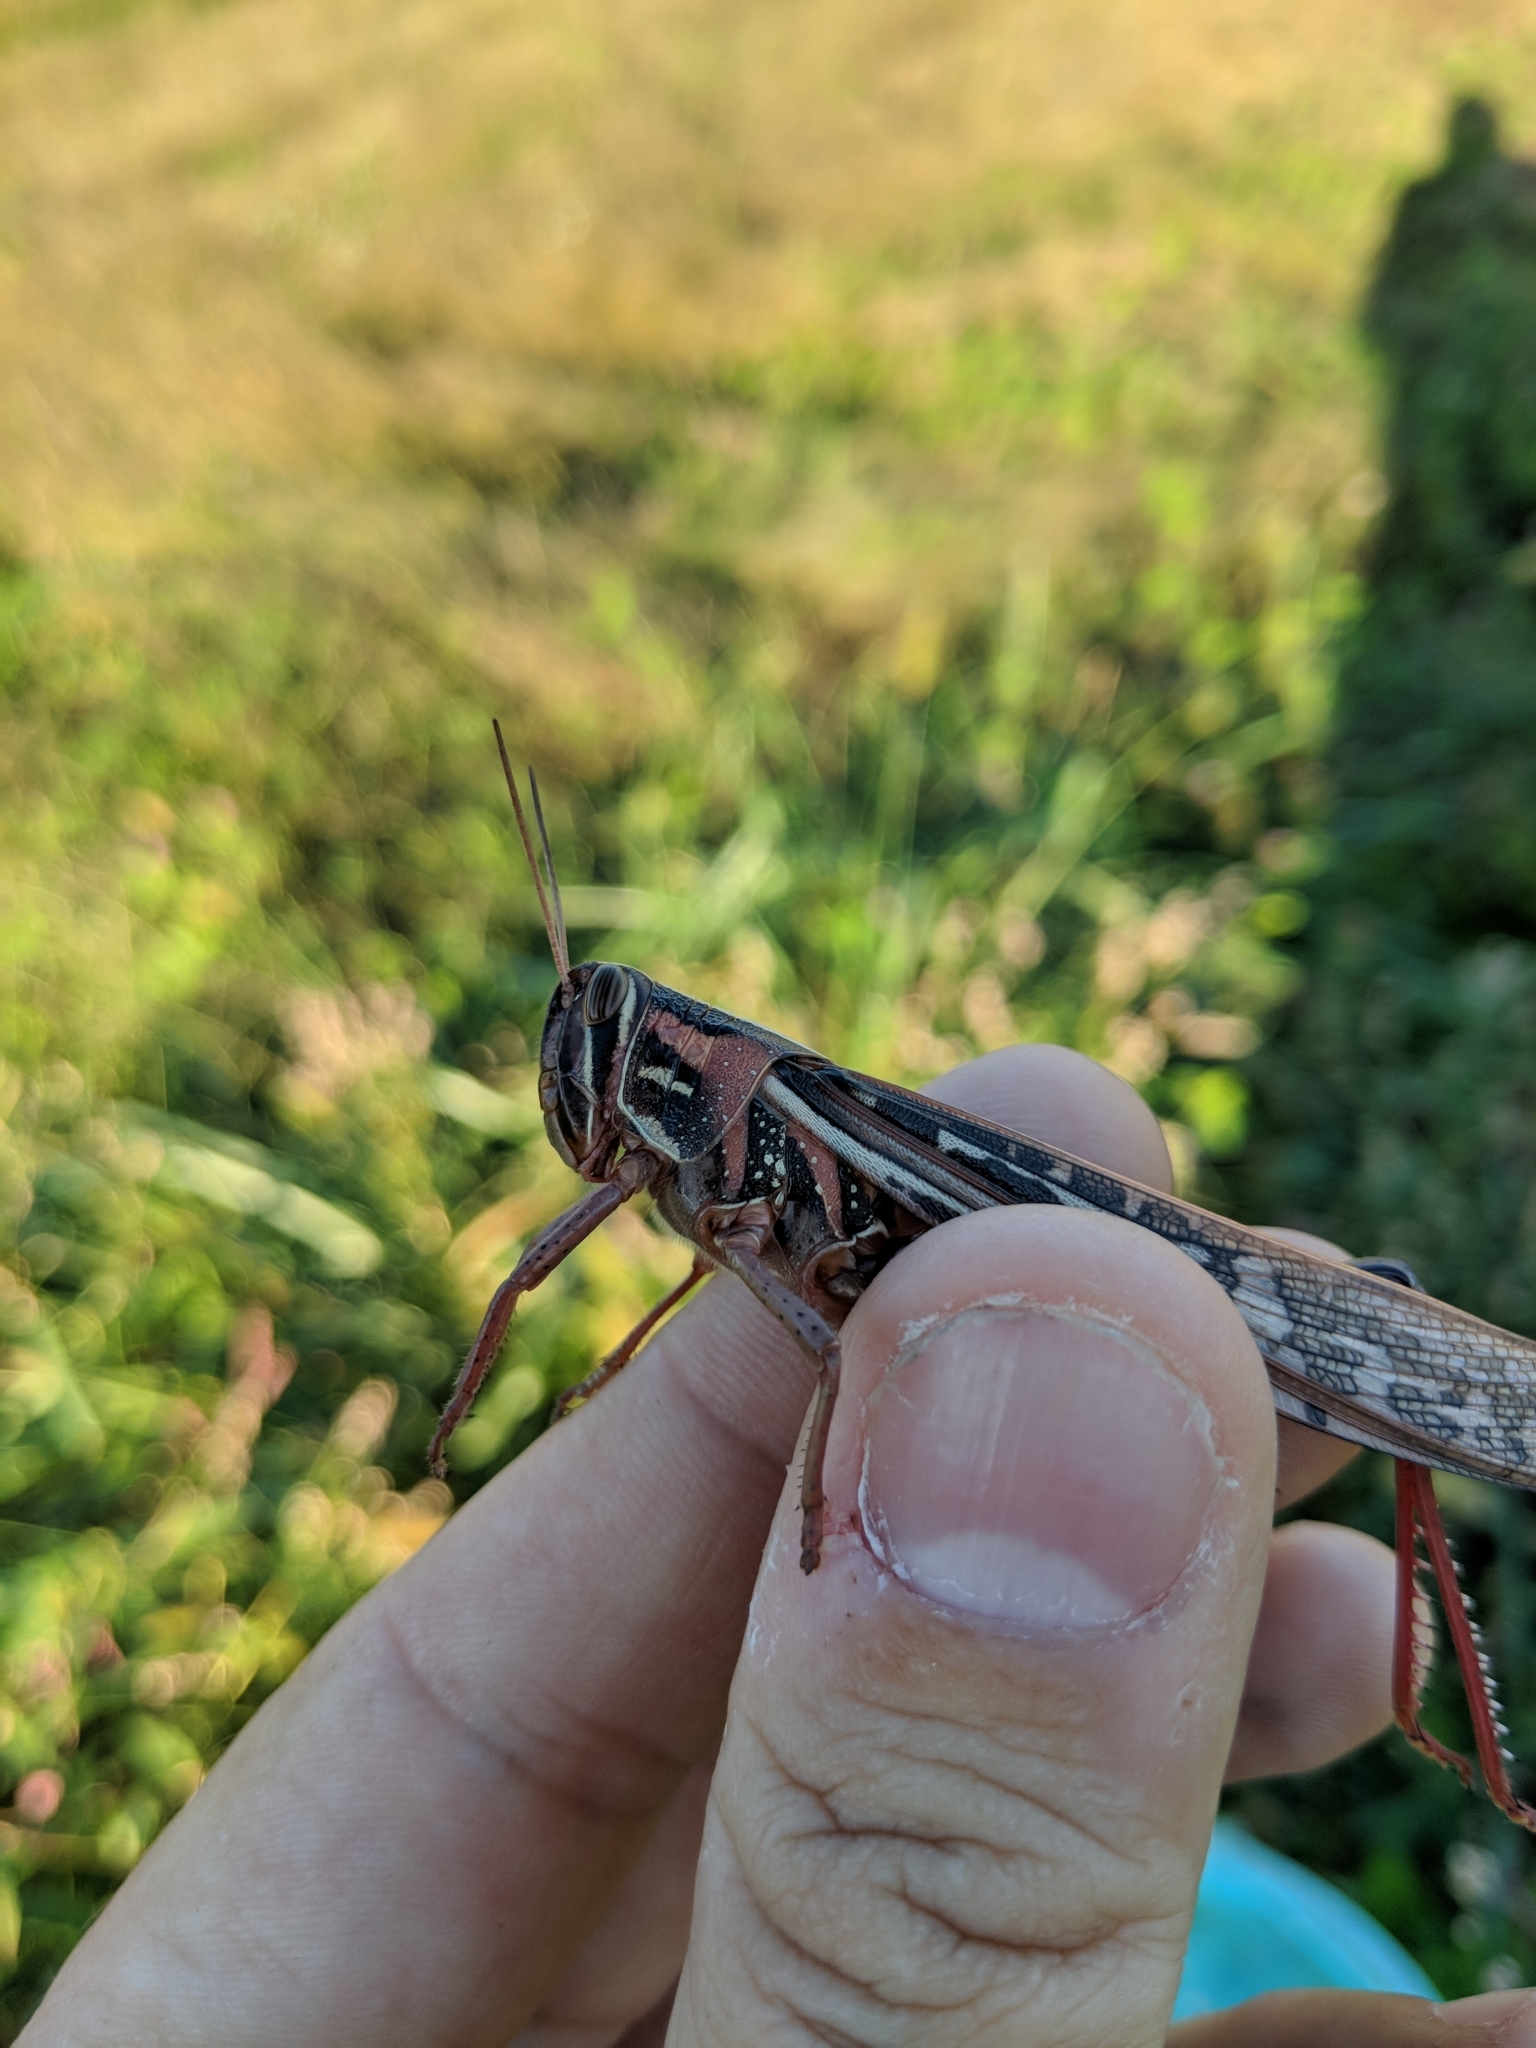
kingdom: Animalia
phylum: Arthropoda
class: Insecta
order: Orthoptera
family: Acrididae
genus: Schistocerca
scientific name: Schistocerca americana
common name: American bird locust
